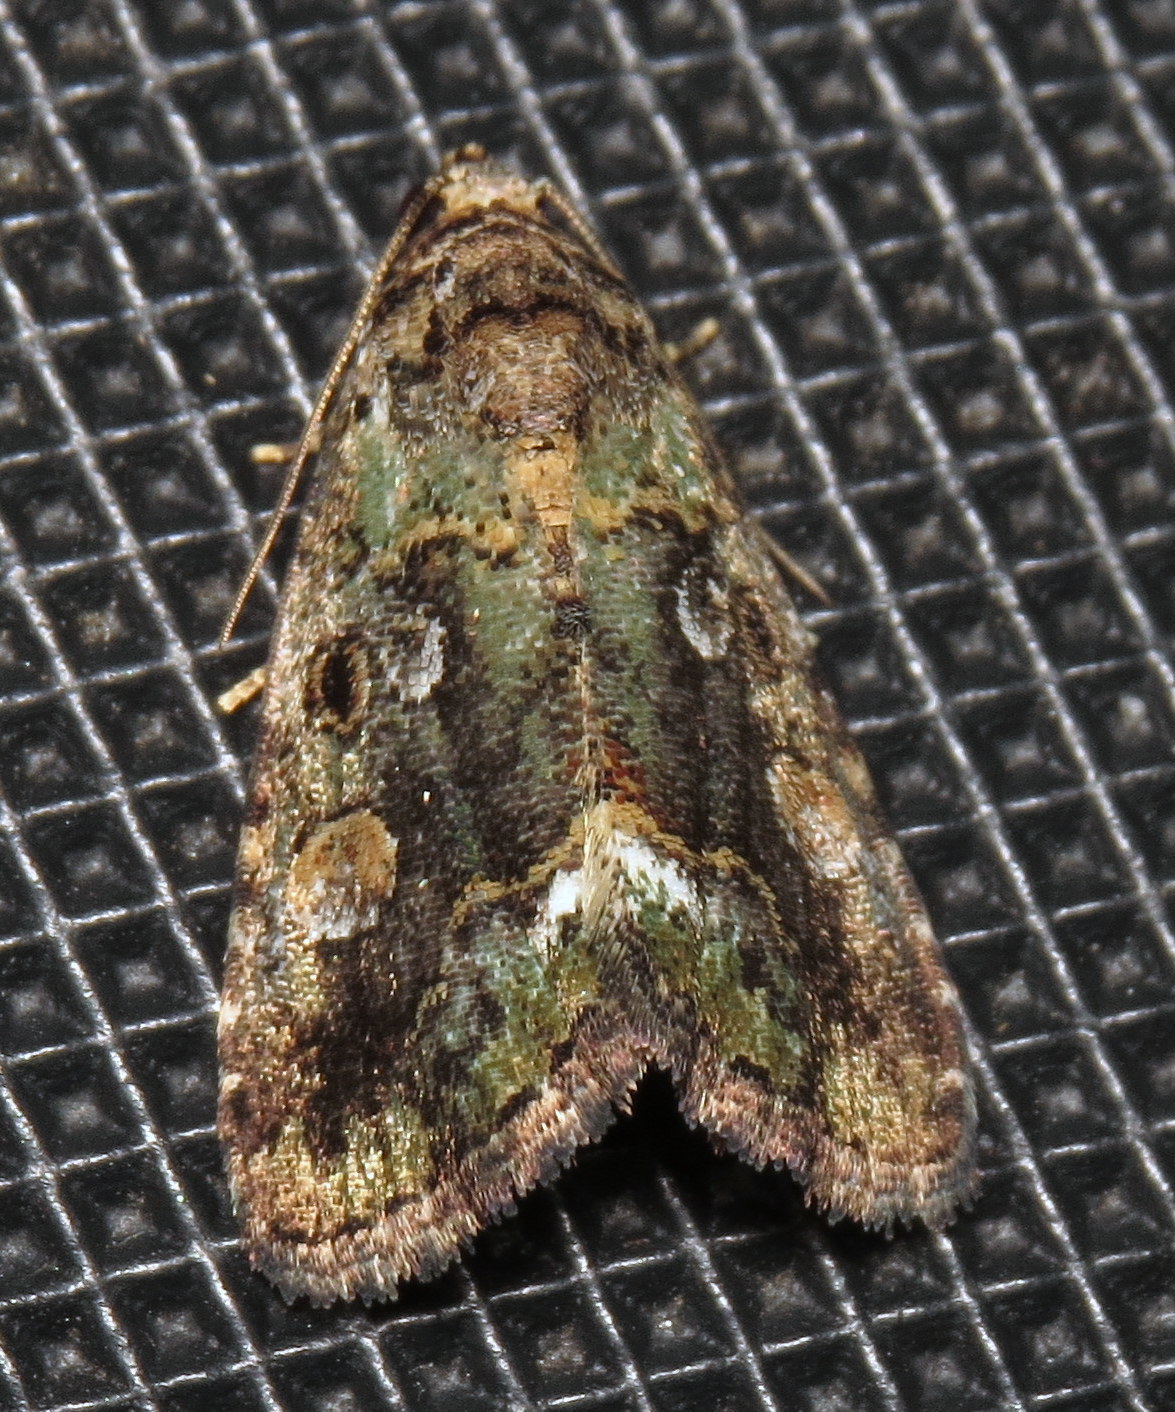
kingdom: Animalia
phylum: Arthropoda
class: Insecta
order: Lepidoptera
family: Noctuidae
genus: Lithacodia
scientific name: Lithacodia musta
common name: Small mossy glyph
